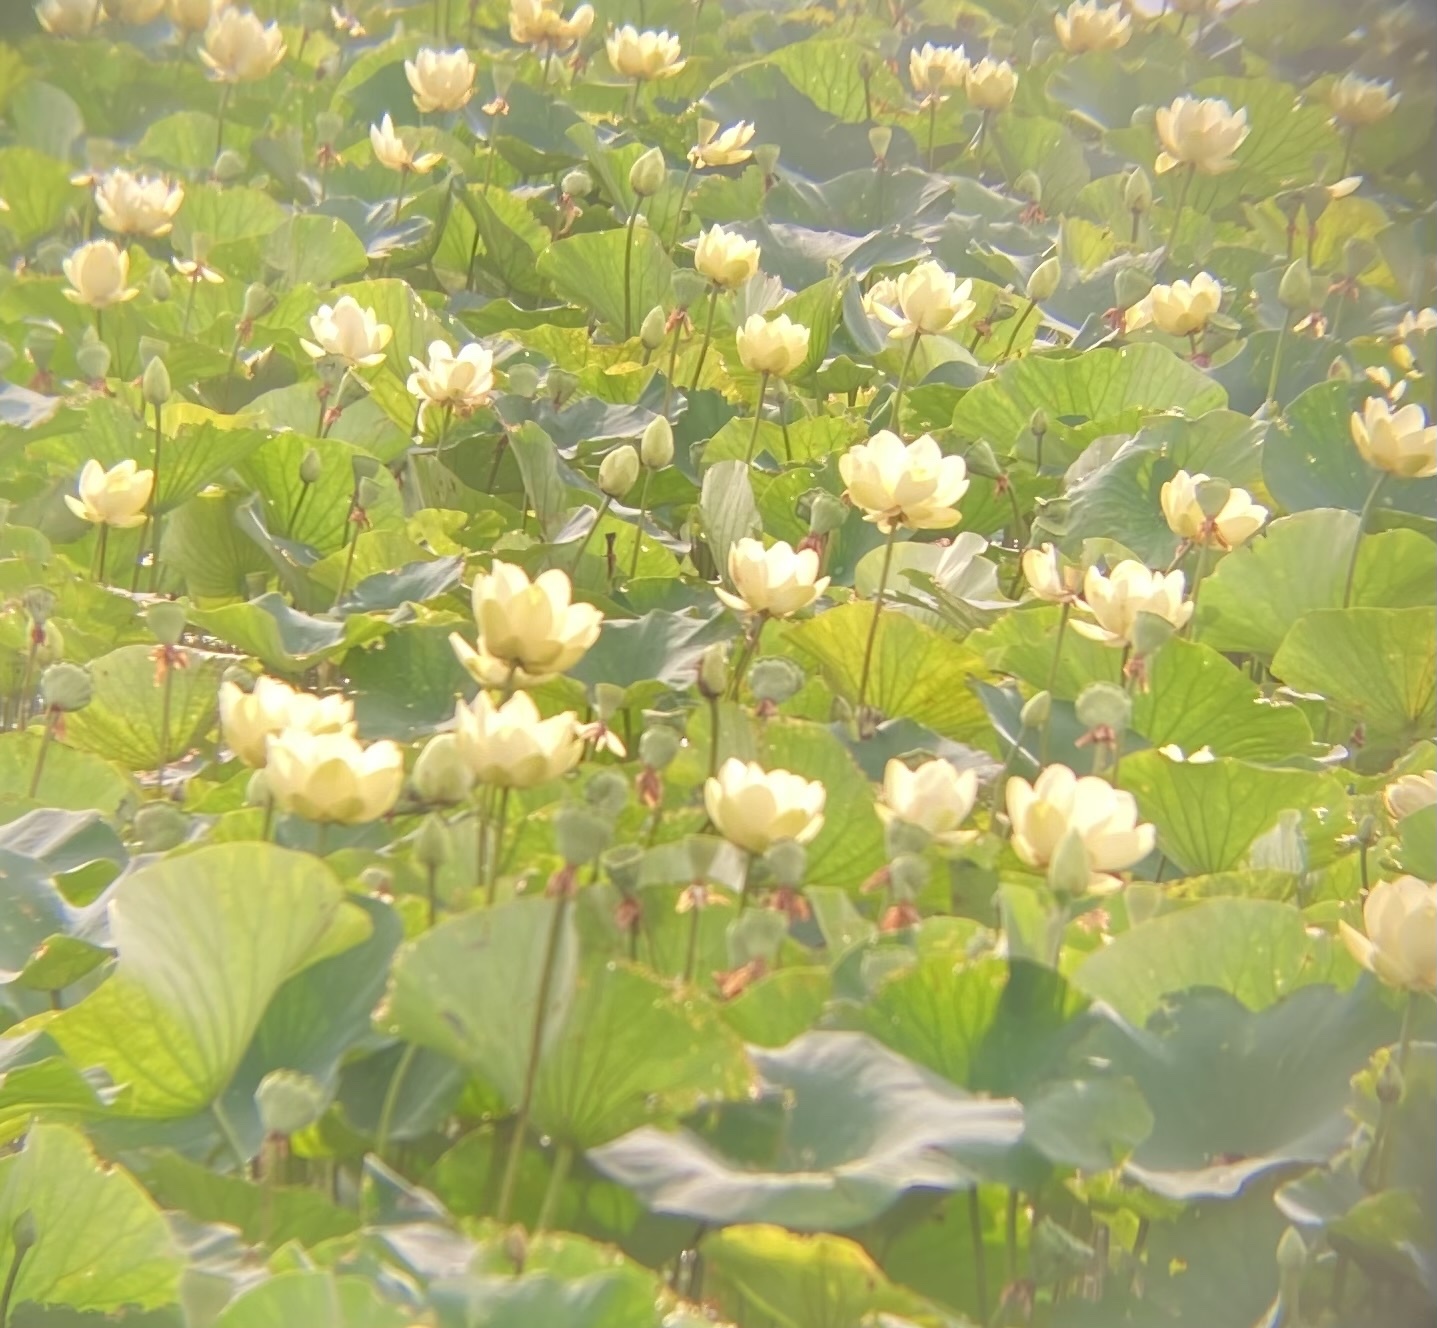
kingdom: Plantae
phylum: Tracheophyta
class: Magnoliopsida
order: Proteales
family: Nelumbonaceae
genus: Nelumbo
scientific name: Nelumbo lutea
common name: American lotus
